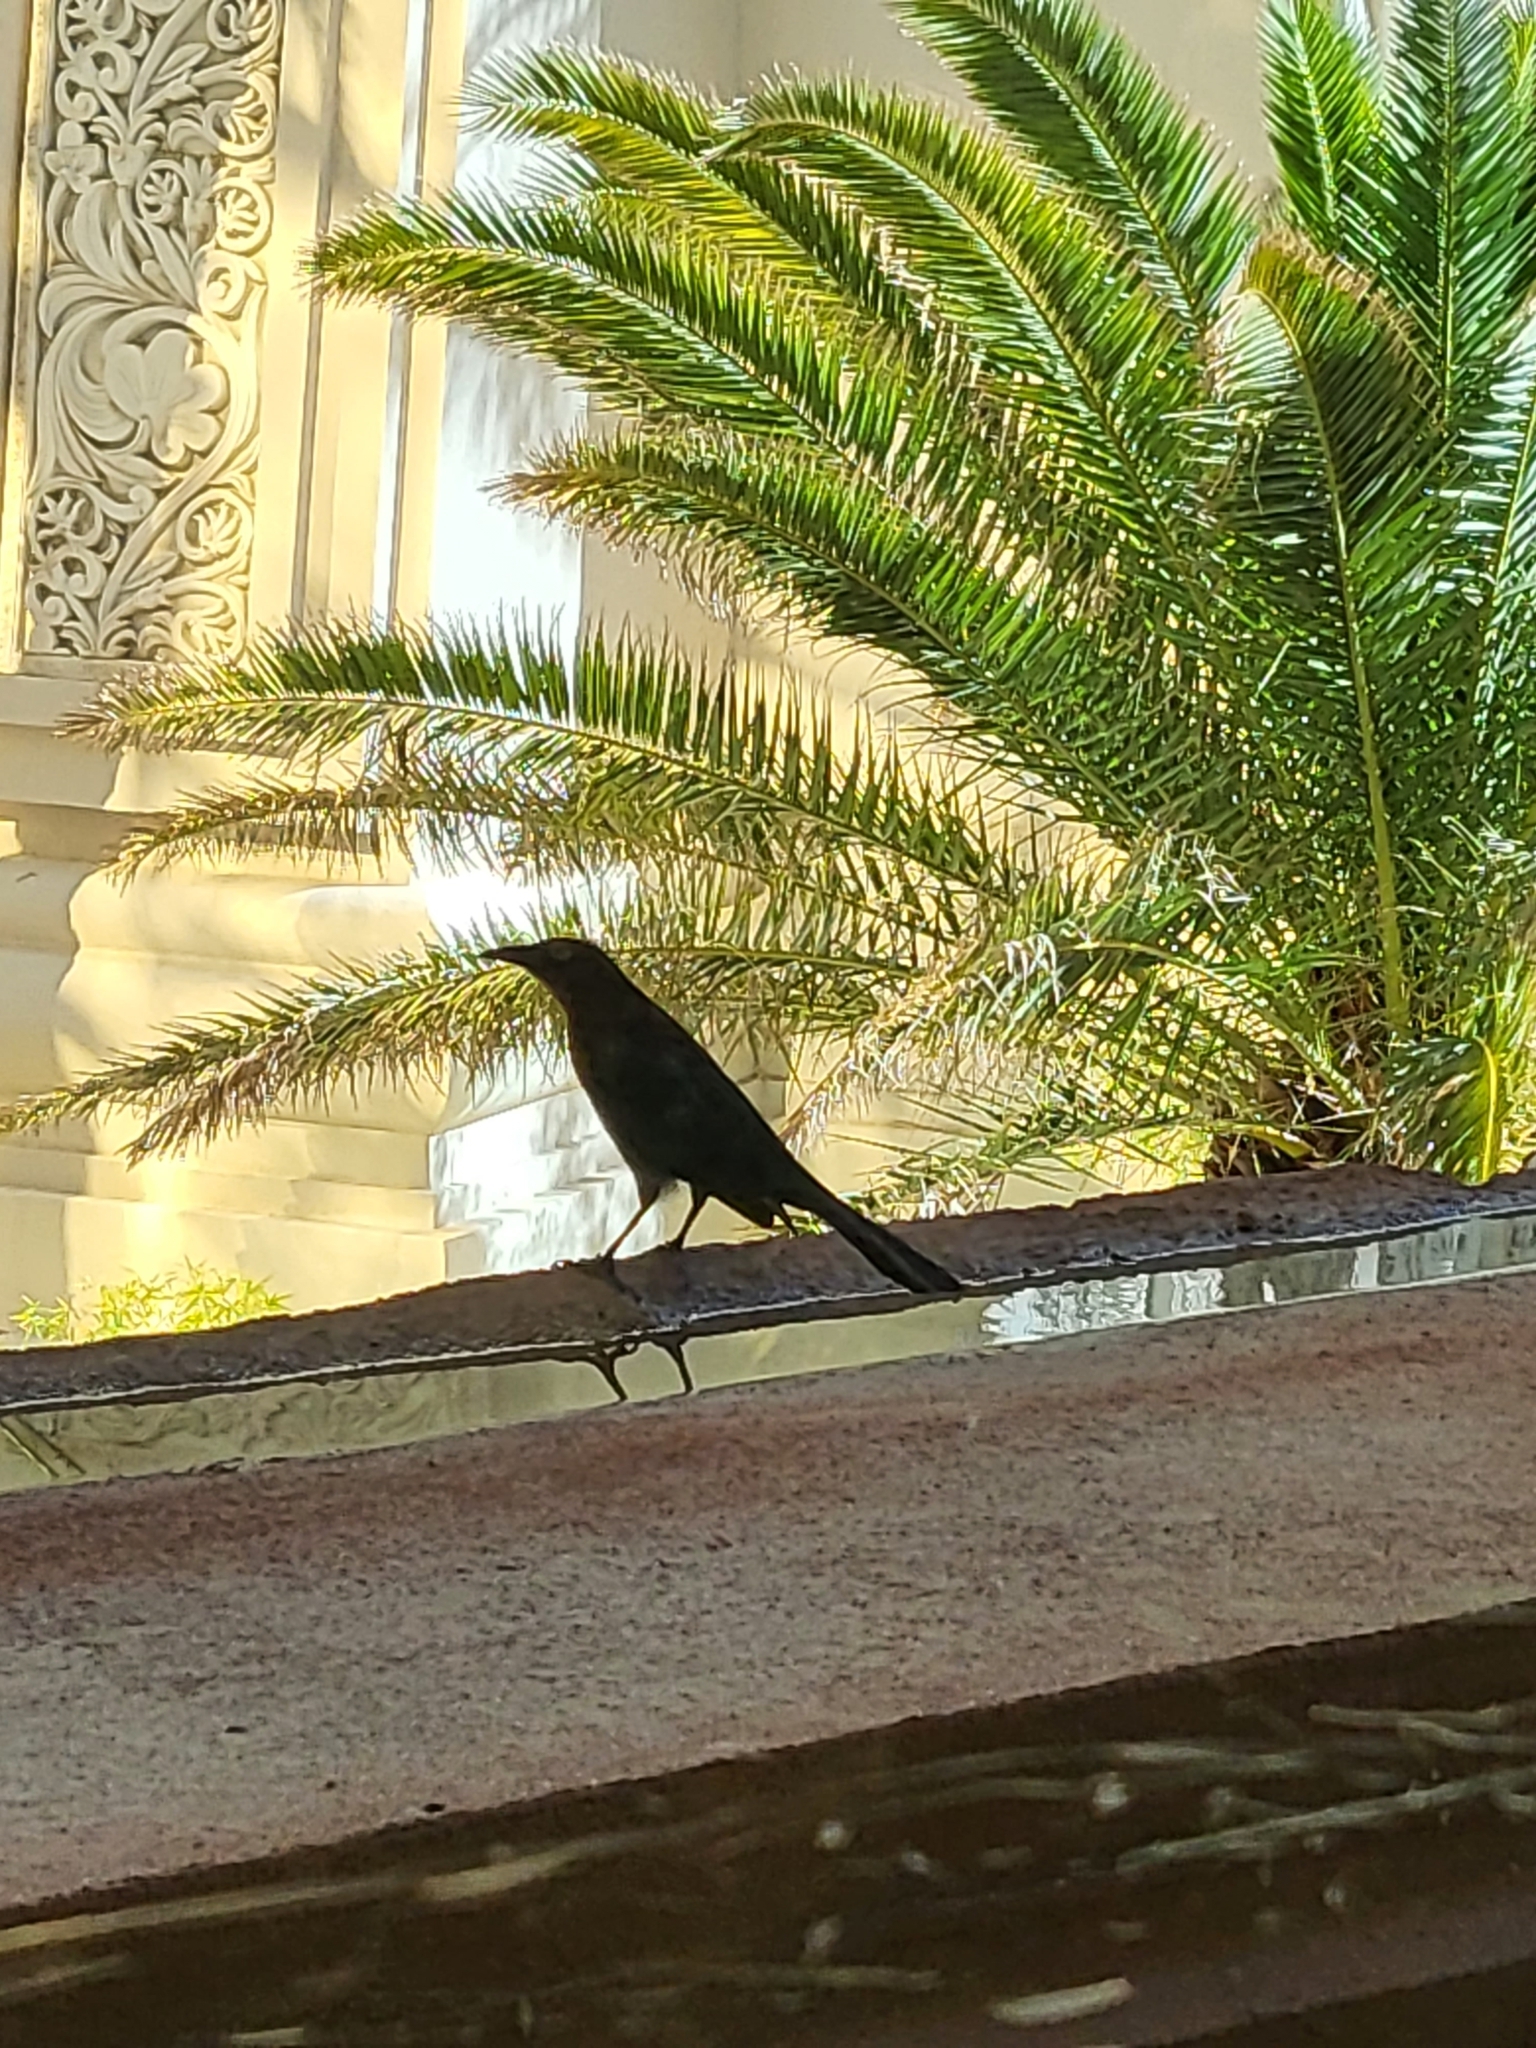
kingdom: Animalia
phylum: Chordata
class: Aves
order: Passeriformes
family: Icteridae
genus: Quiscalus
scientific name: Quiscalus mexicanus
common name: Great-tailed grackle
